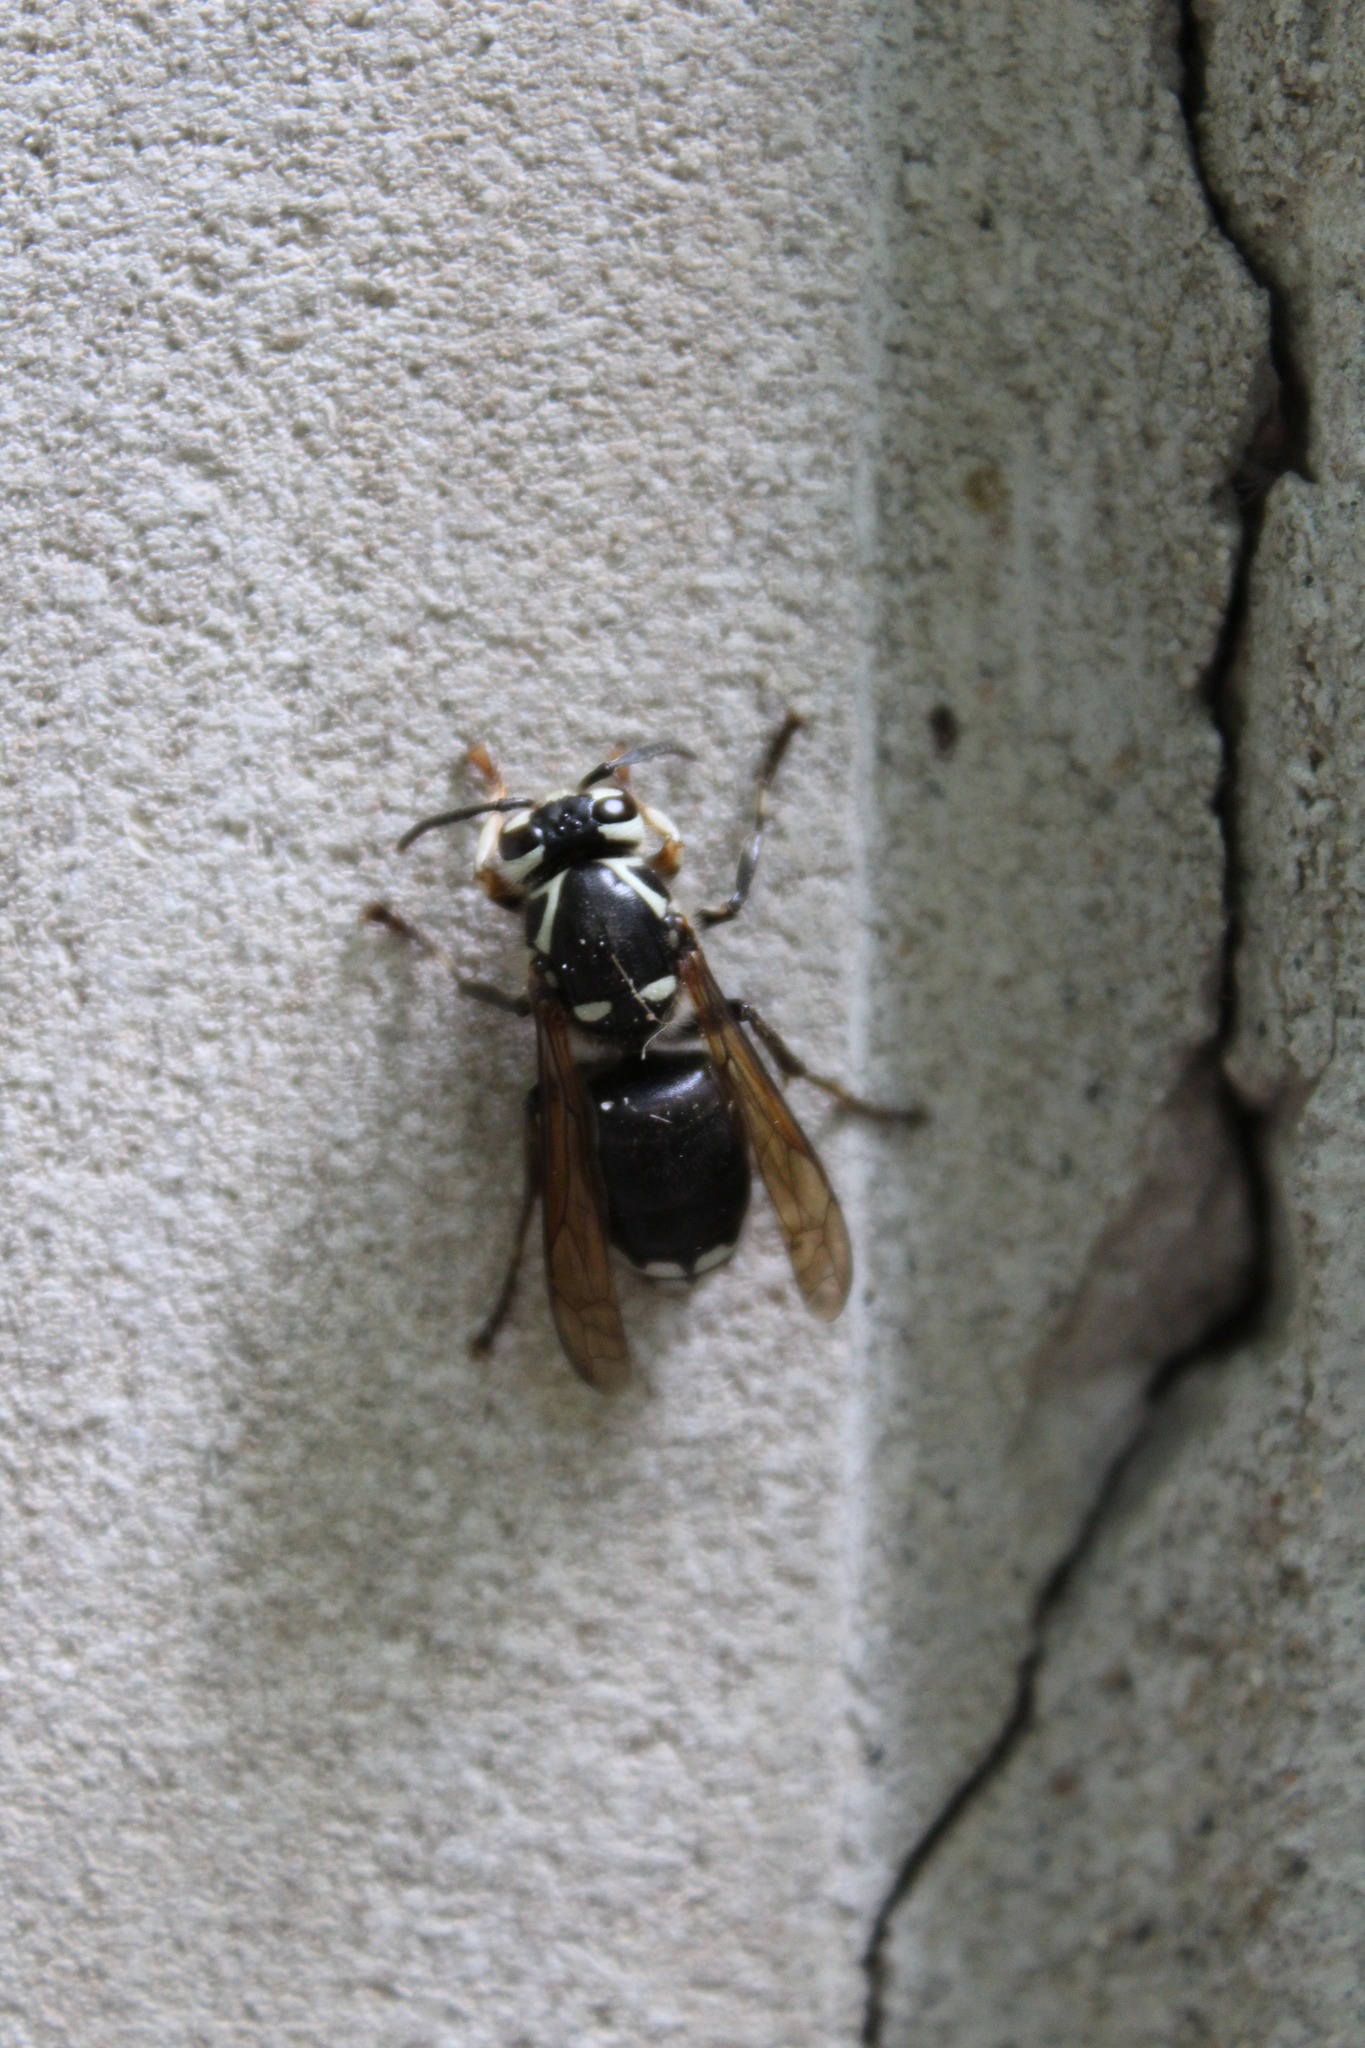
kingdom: Animalia
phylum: Arthropoda
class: Insecta
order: Hymenoptera
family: Vespidae
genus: Dolichovespula
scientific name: Dolichovespula maculata
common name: Bald-faced hornet
